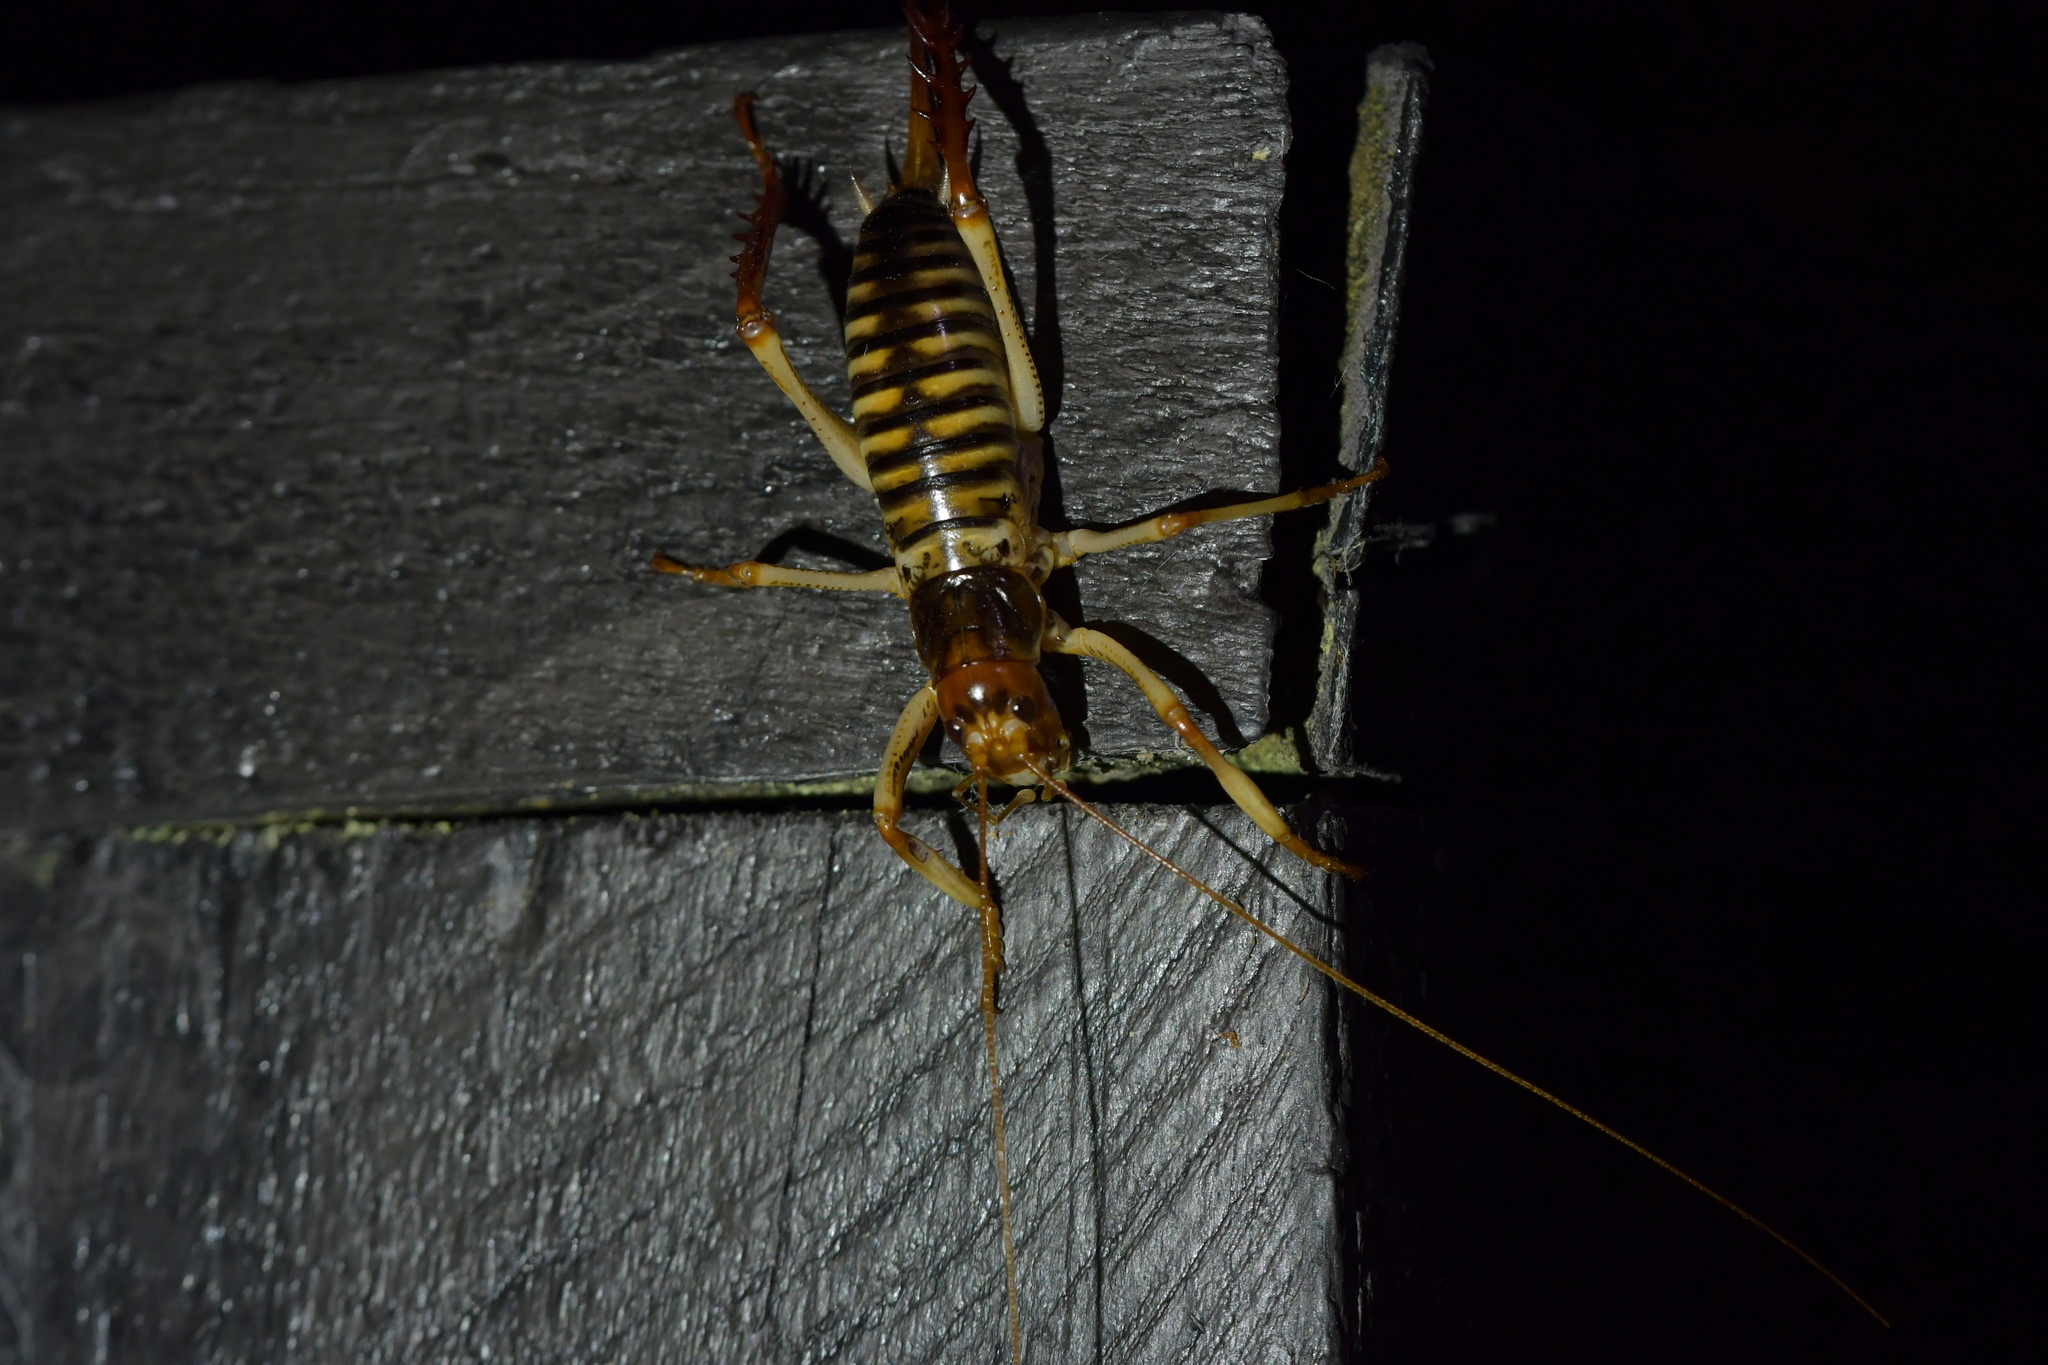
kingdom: Animalia
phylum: Arthropoda
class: Insecta
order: Orthoptera
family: Anostostomatidae
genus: Hemideina
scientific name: Hemideina crassidens
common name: Wellington tree weta
